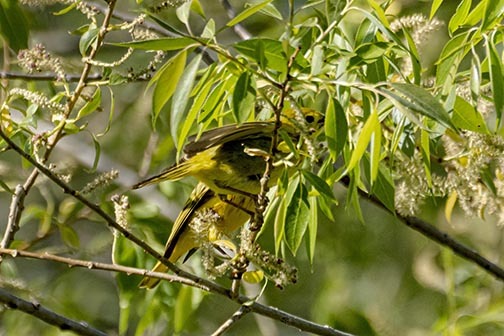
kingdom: Animalia
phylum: Chordata
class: Aves
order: Passeriformes
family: Parulidae
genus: Setophaga
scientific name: Setophaga petechia
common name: Yellow warbler
